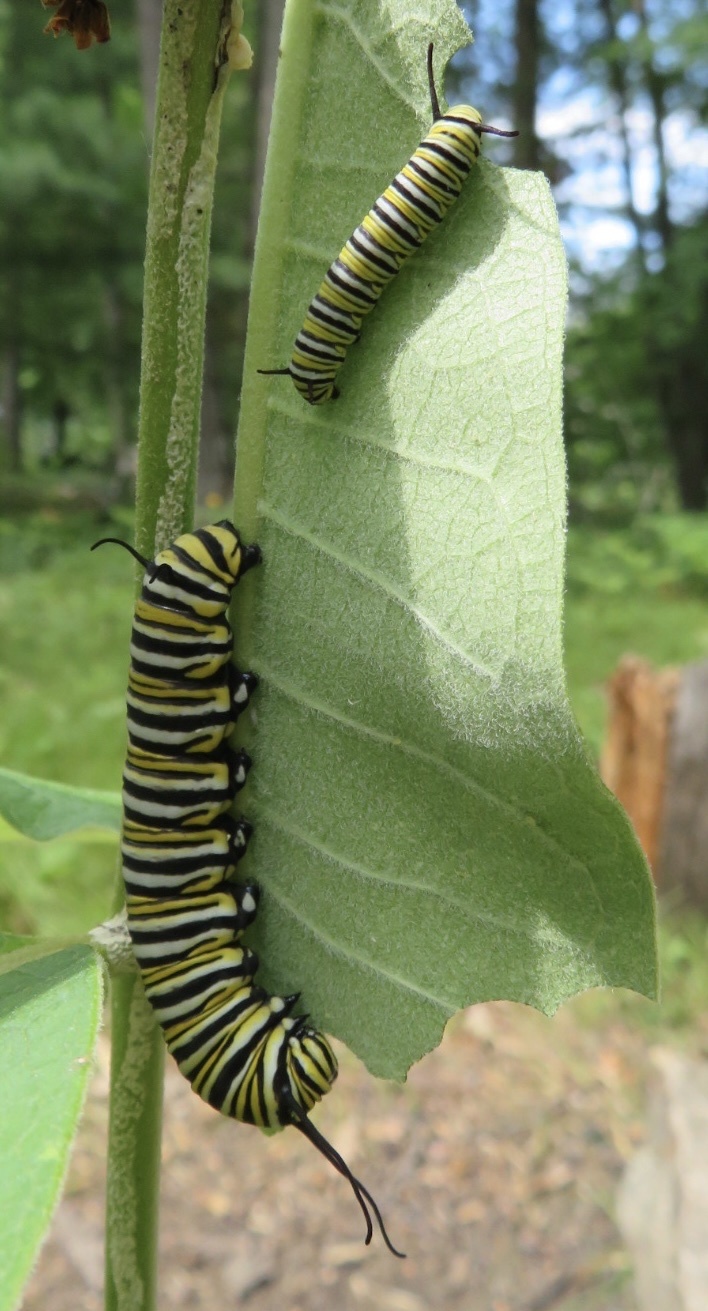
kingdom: Animalia
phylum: Arthropoda
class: Insecta
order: Lepidoptera
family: Nymphalidae
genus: Danaus
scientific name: Danaus plexippus
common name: Monarch
